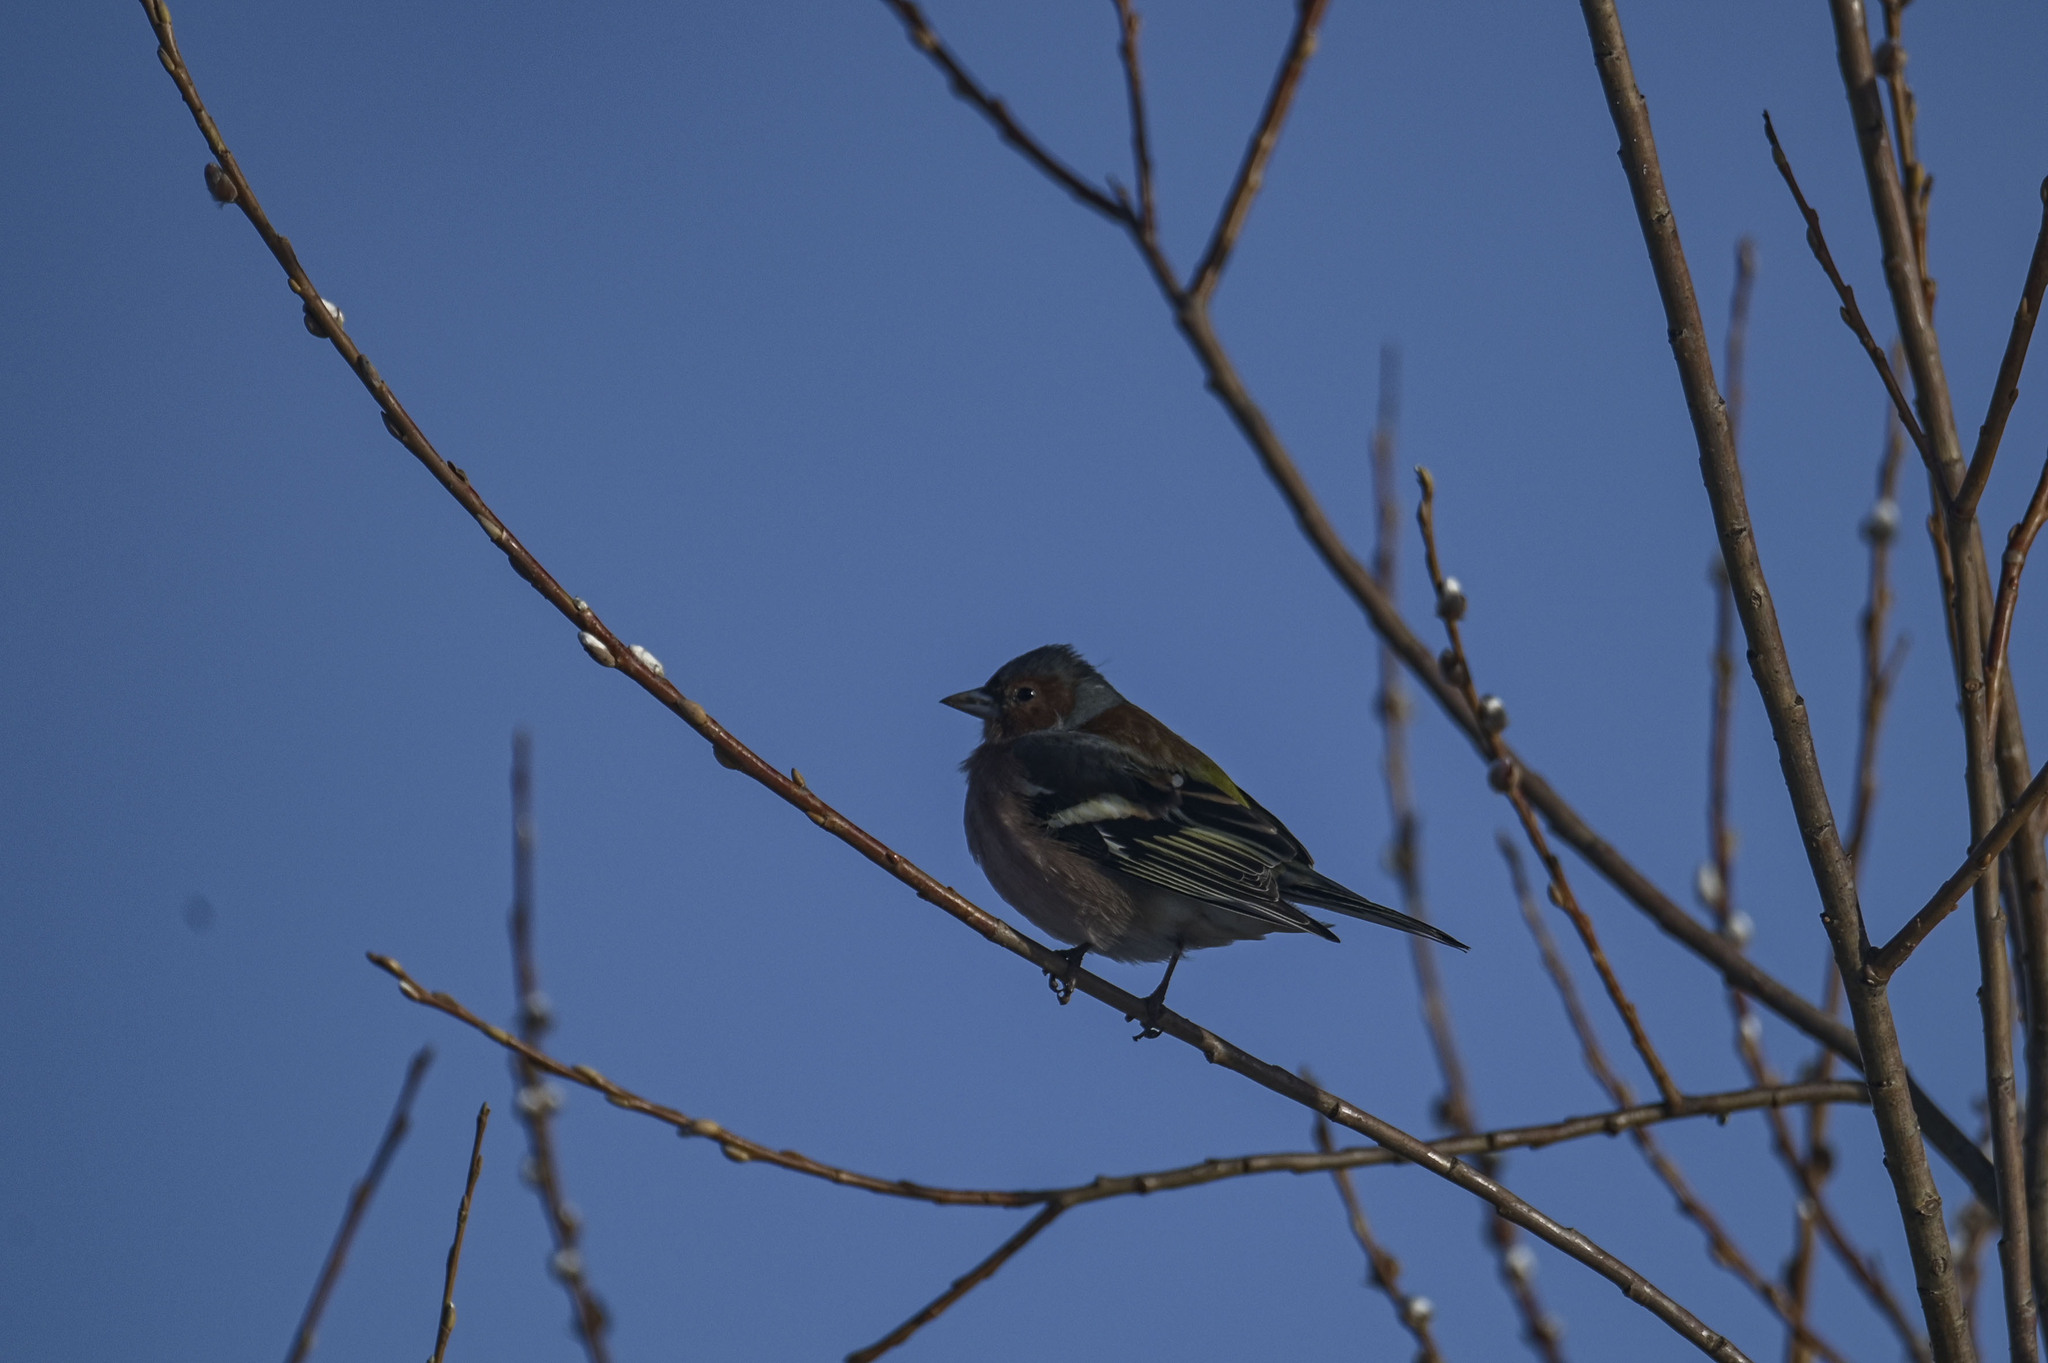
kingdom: Animalia
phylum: Chordata
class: Aves
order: Passeriformes
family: Fringillidae
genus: Fringilla
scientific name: Fringilla coelebs
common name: Common chaffinch
